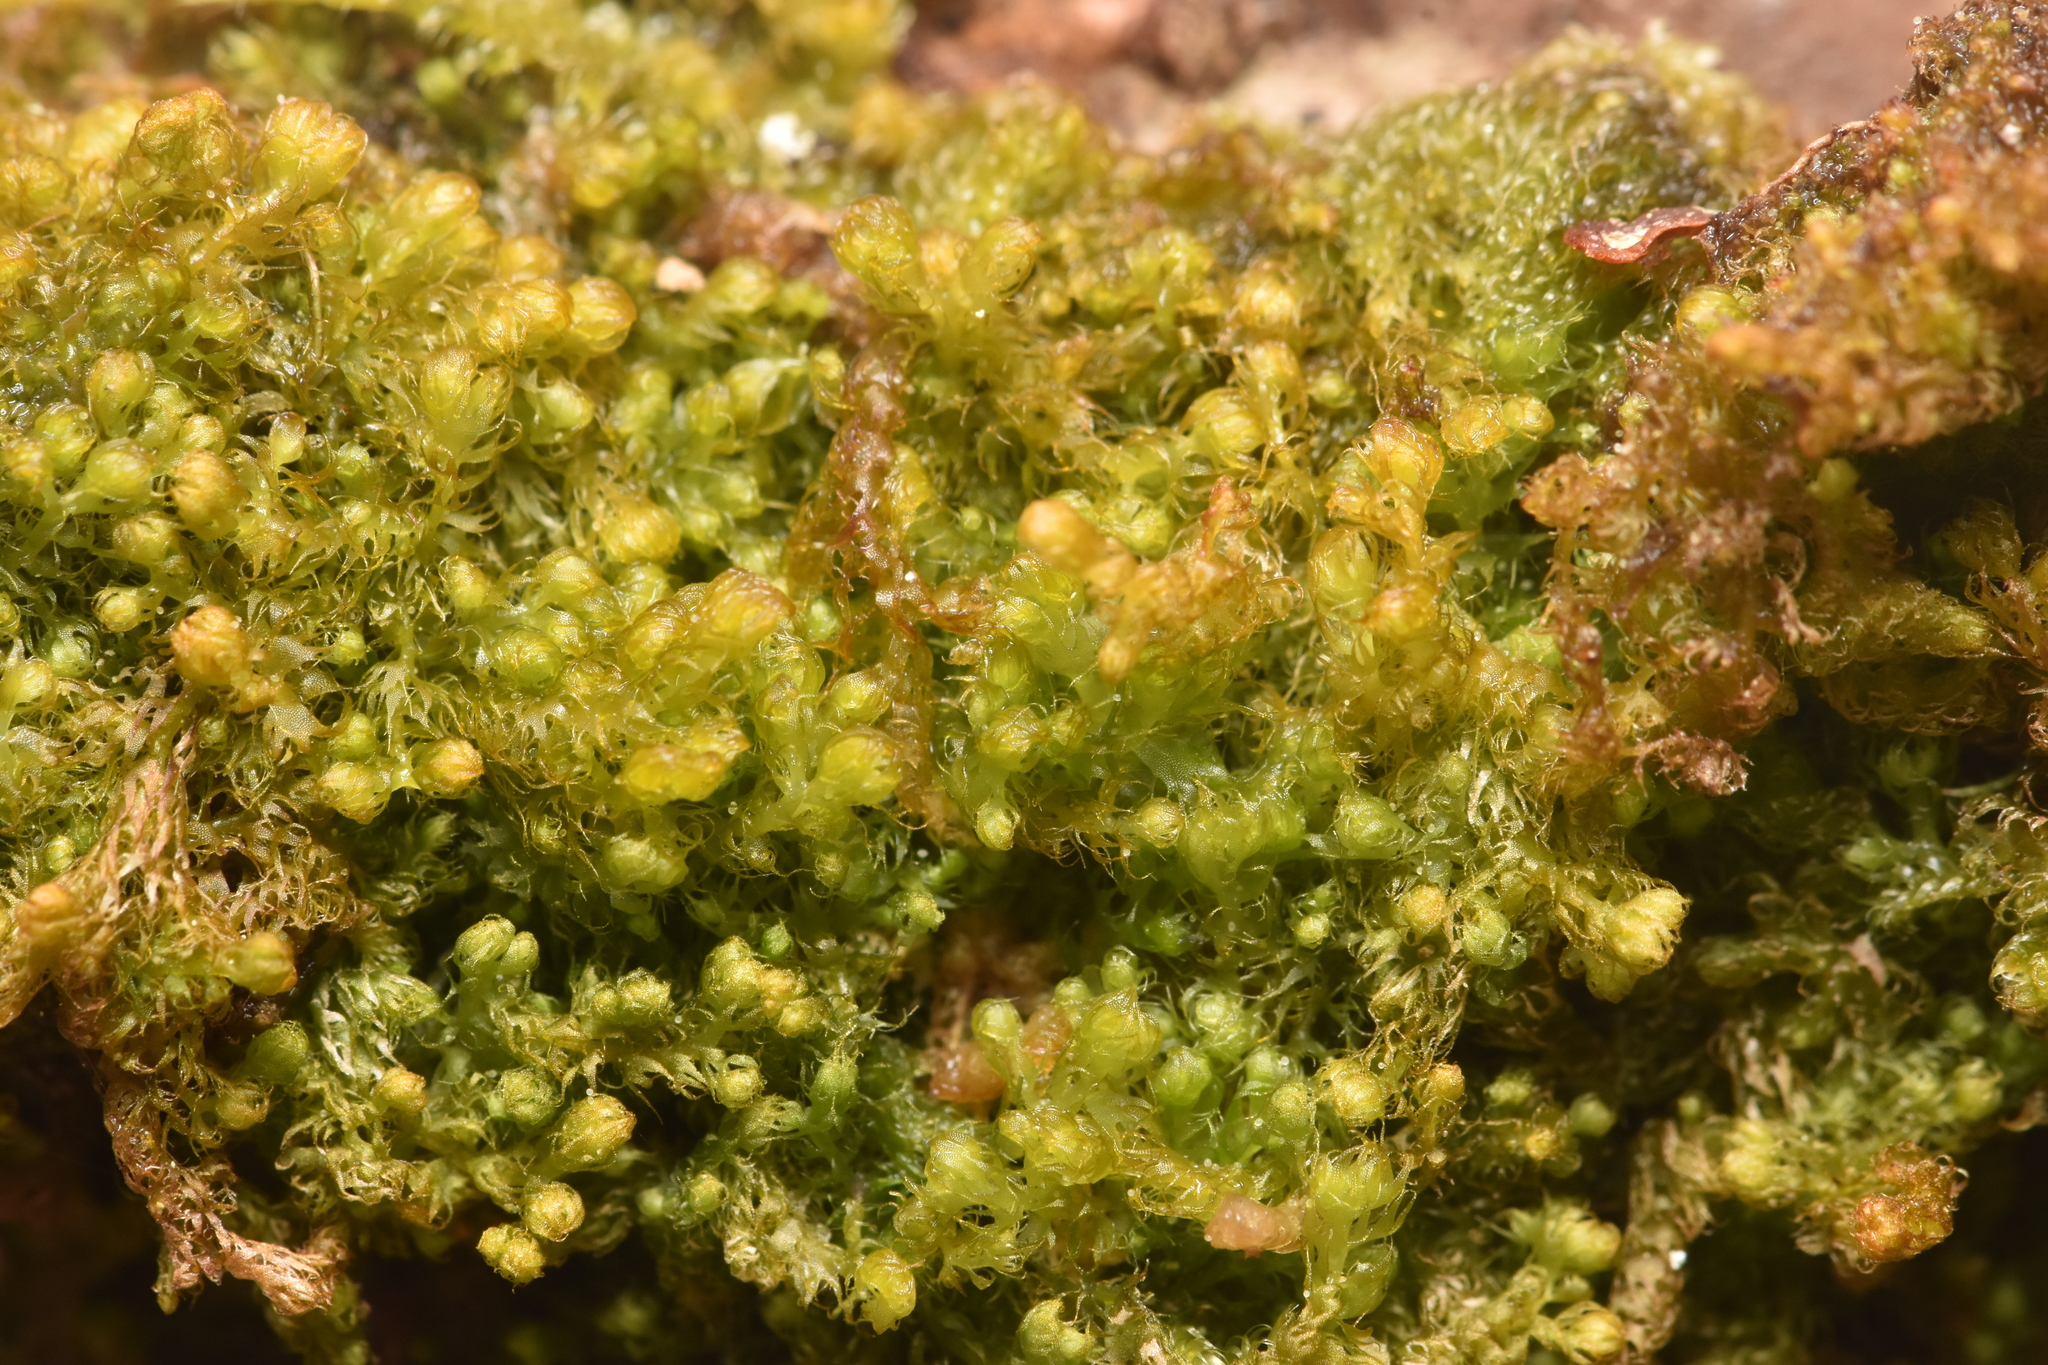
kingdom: Plantae
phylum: Marchantiophyta
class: Jungermanniopsida
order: Ptilidiales
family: Ptilidiaceae
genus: Ptilidium
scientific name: Ptilidium californicum
